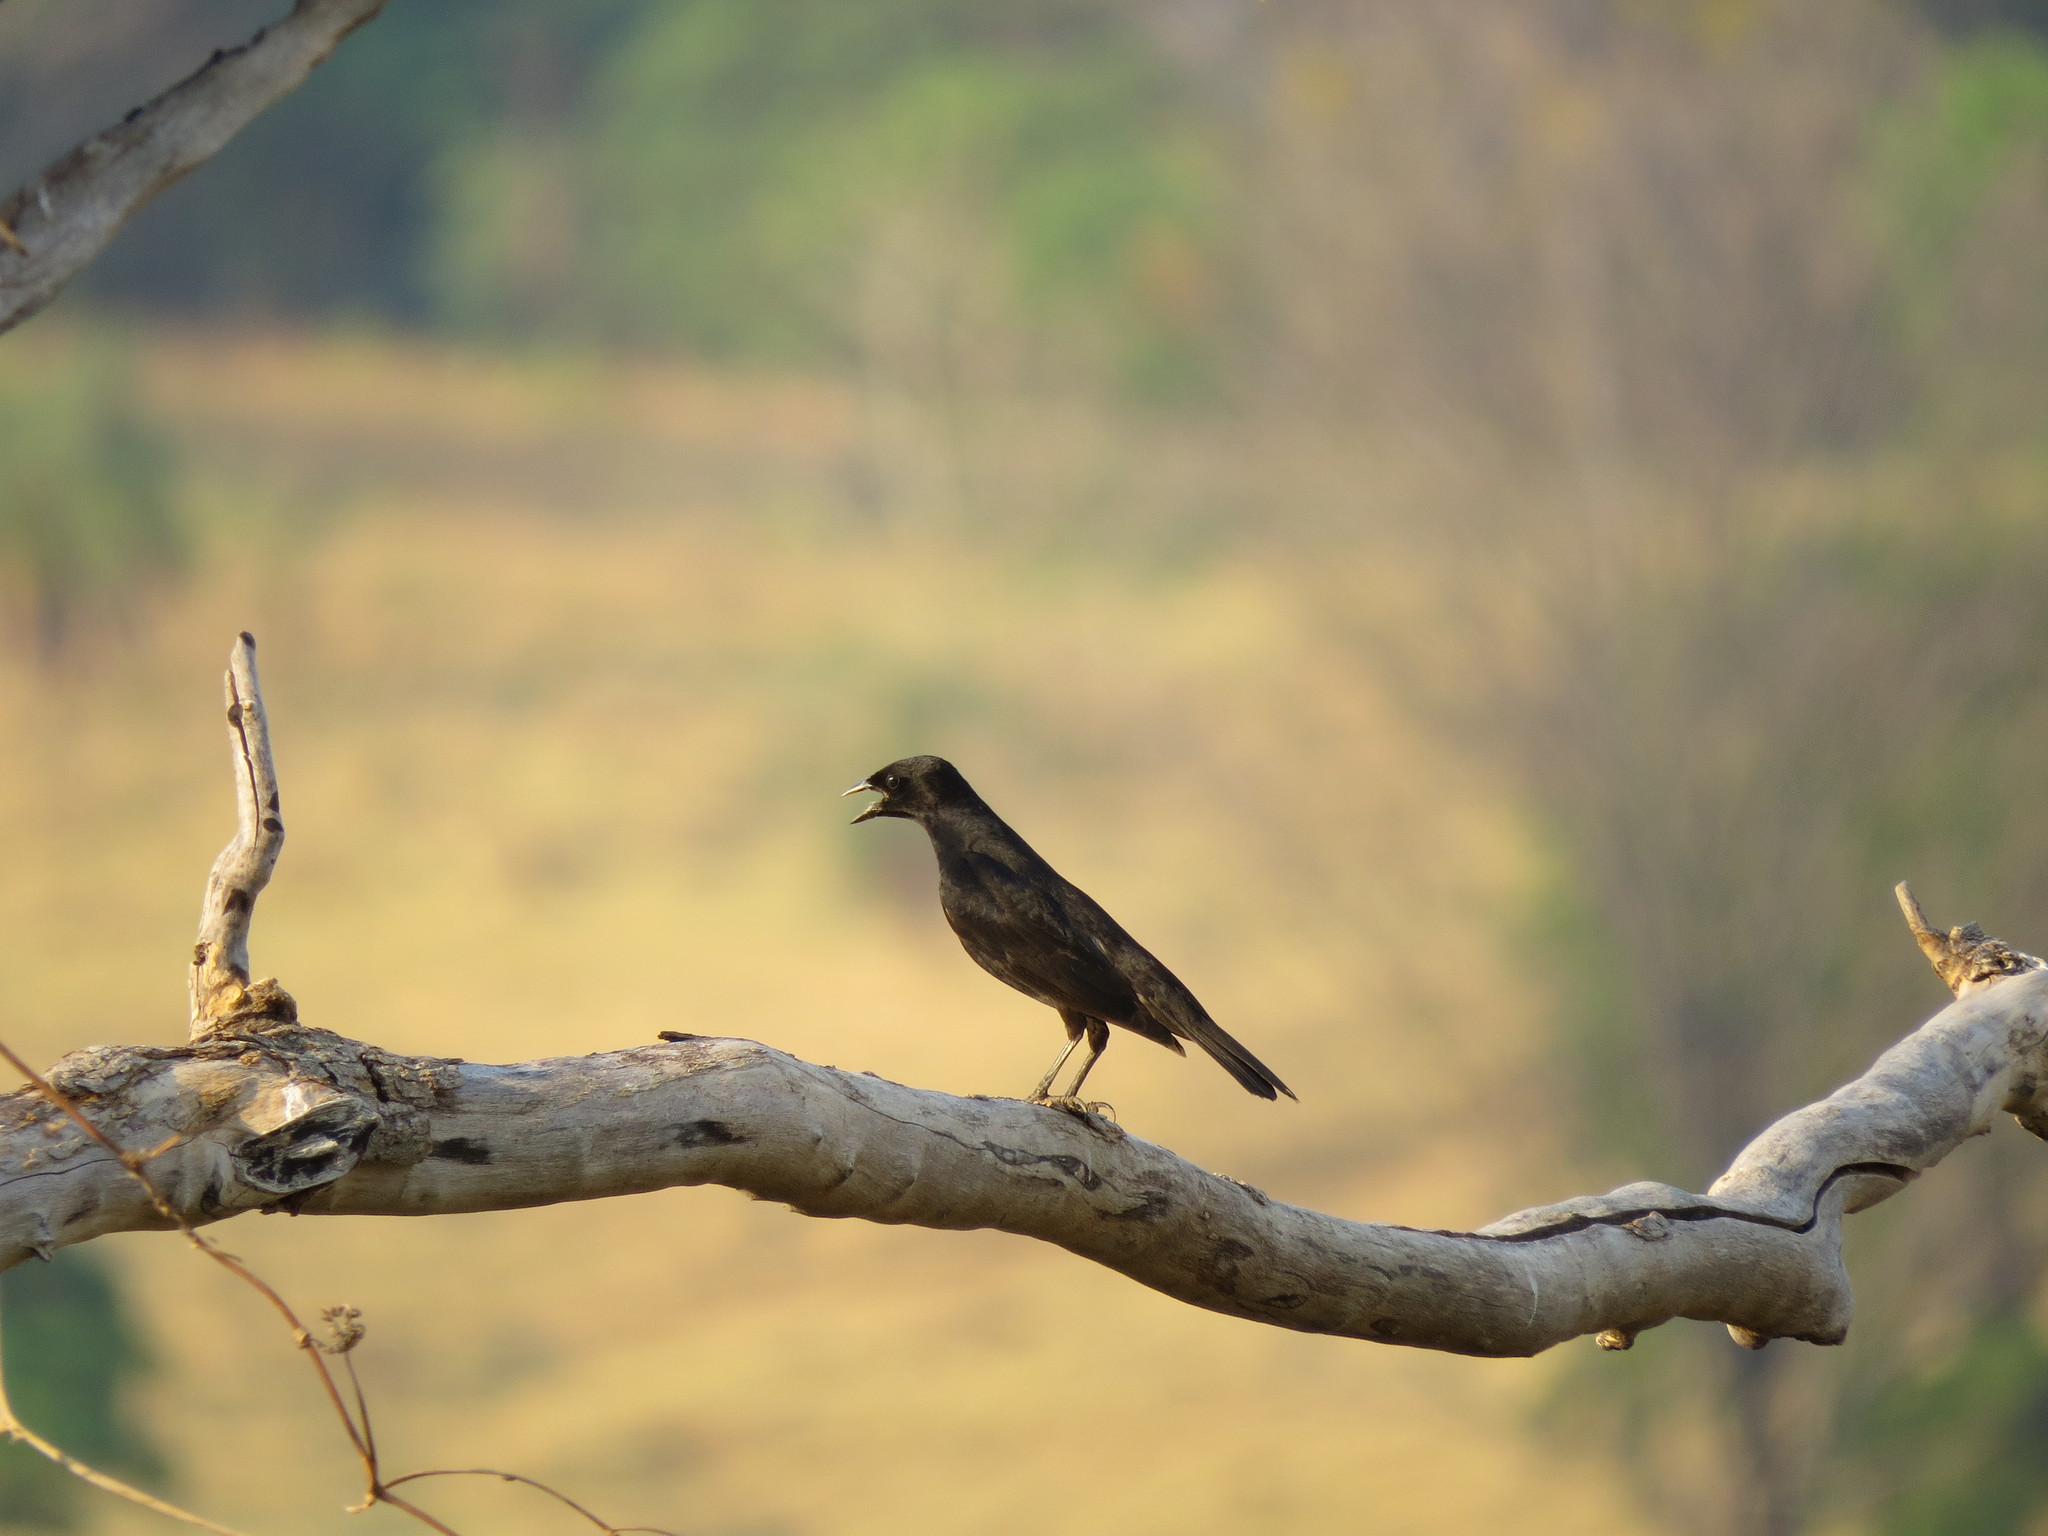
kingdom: Animalia
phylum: Chordata
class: Aves
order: Passeriformes
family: Icteridae
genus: Molothrus
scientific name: Molothrus bonariensis
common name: Shiny cowbird
